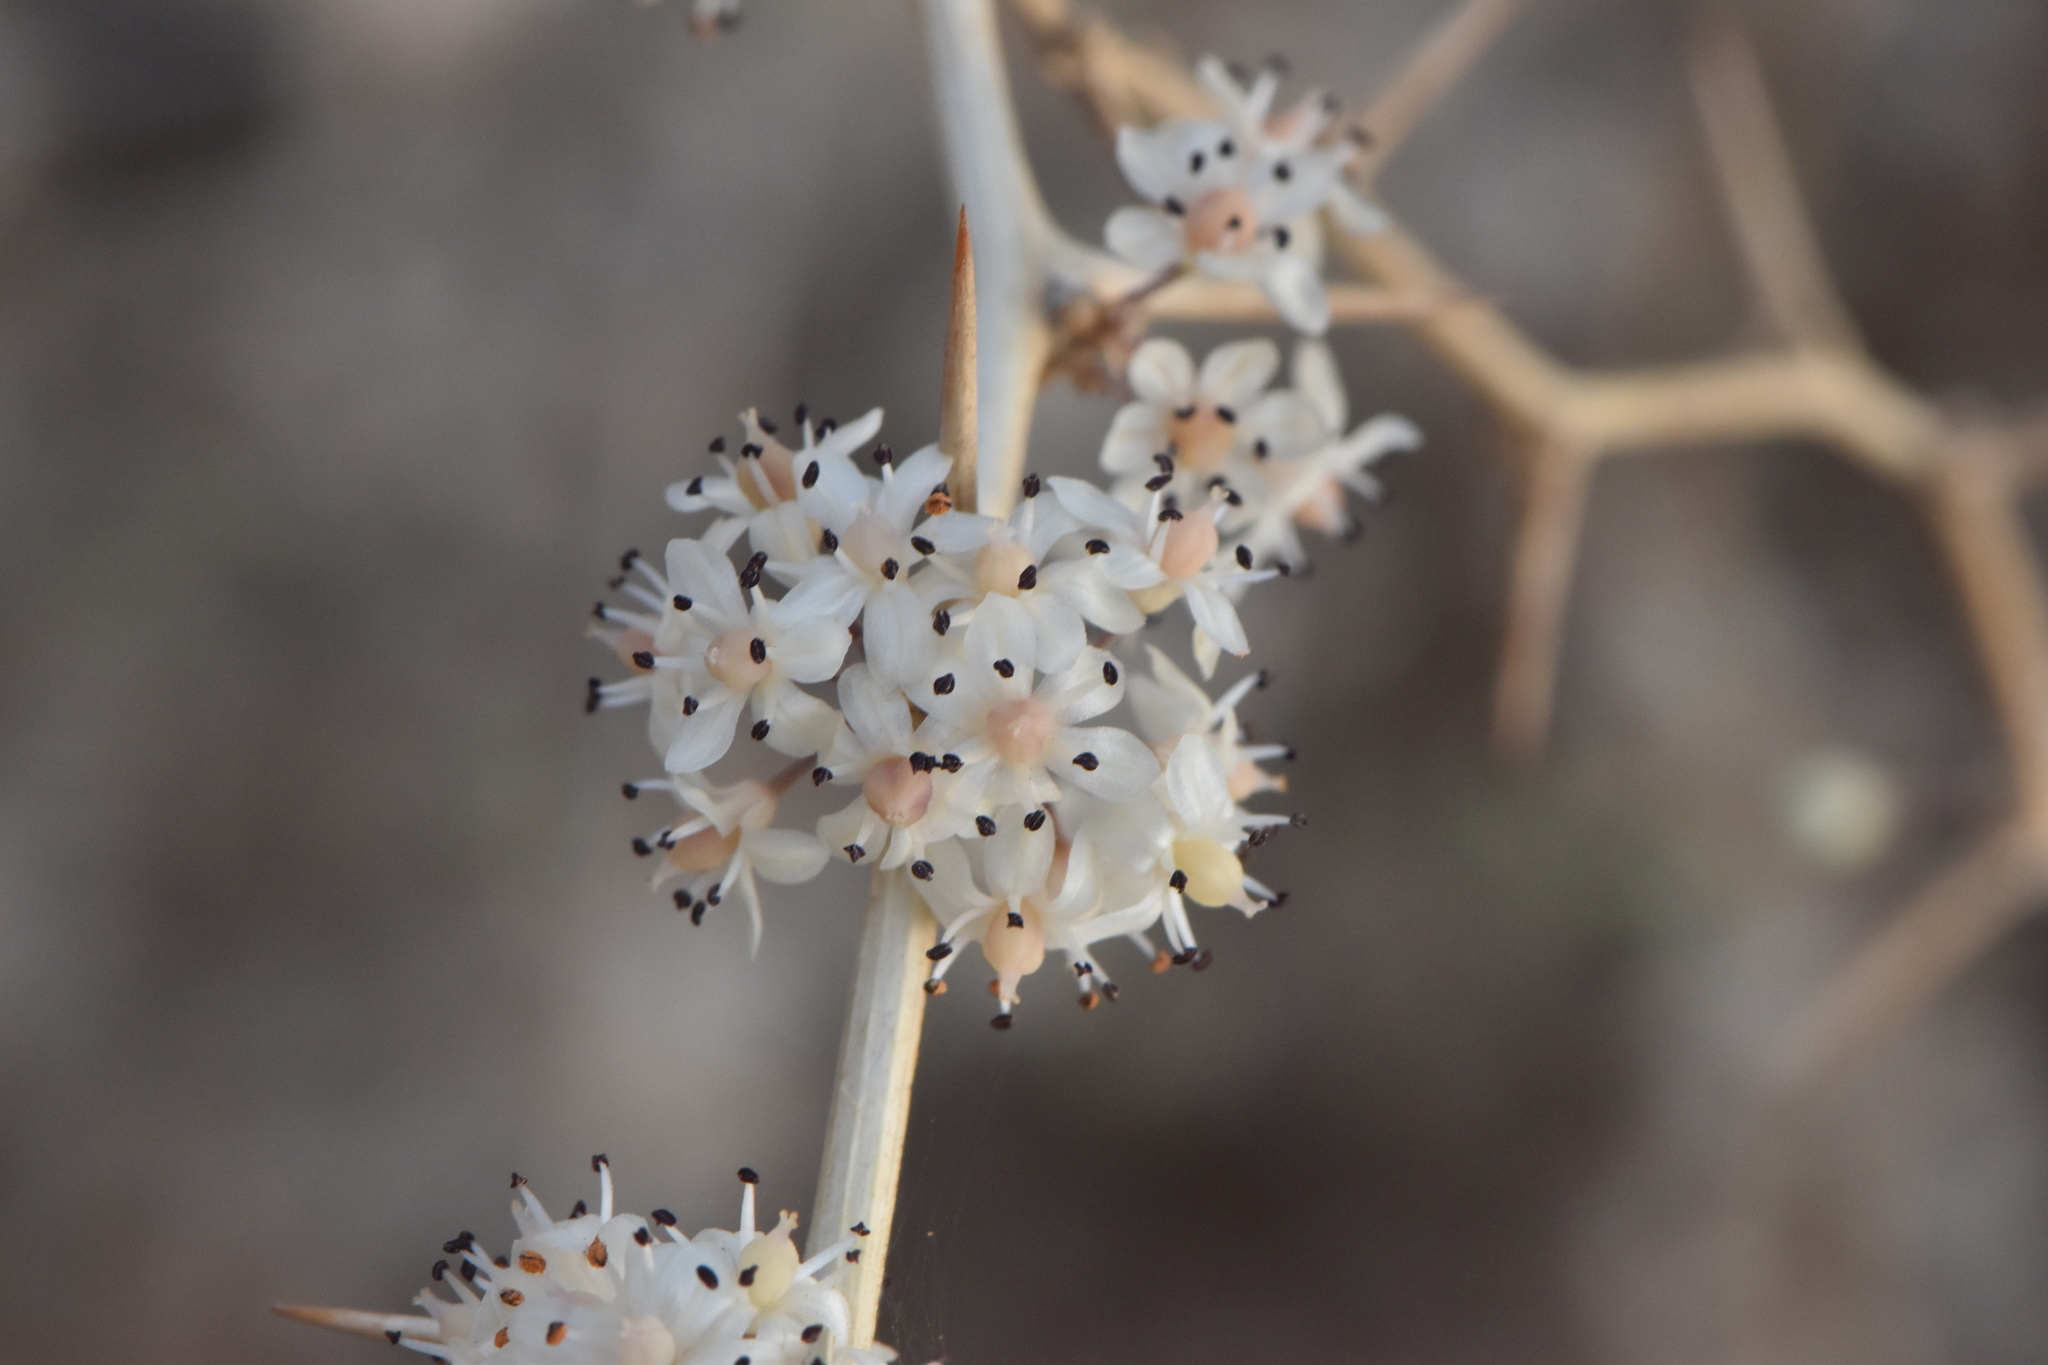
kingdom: Plantae
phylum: Tracheophyta
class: Liliopsida
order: Asparagales
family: Asparagaceae
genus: Asparagus
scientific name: Asparagus albus
